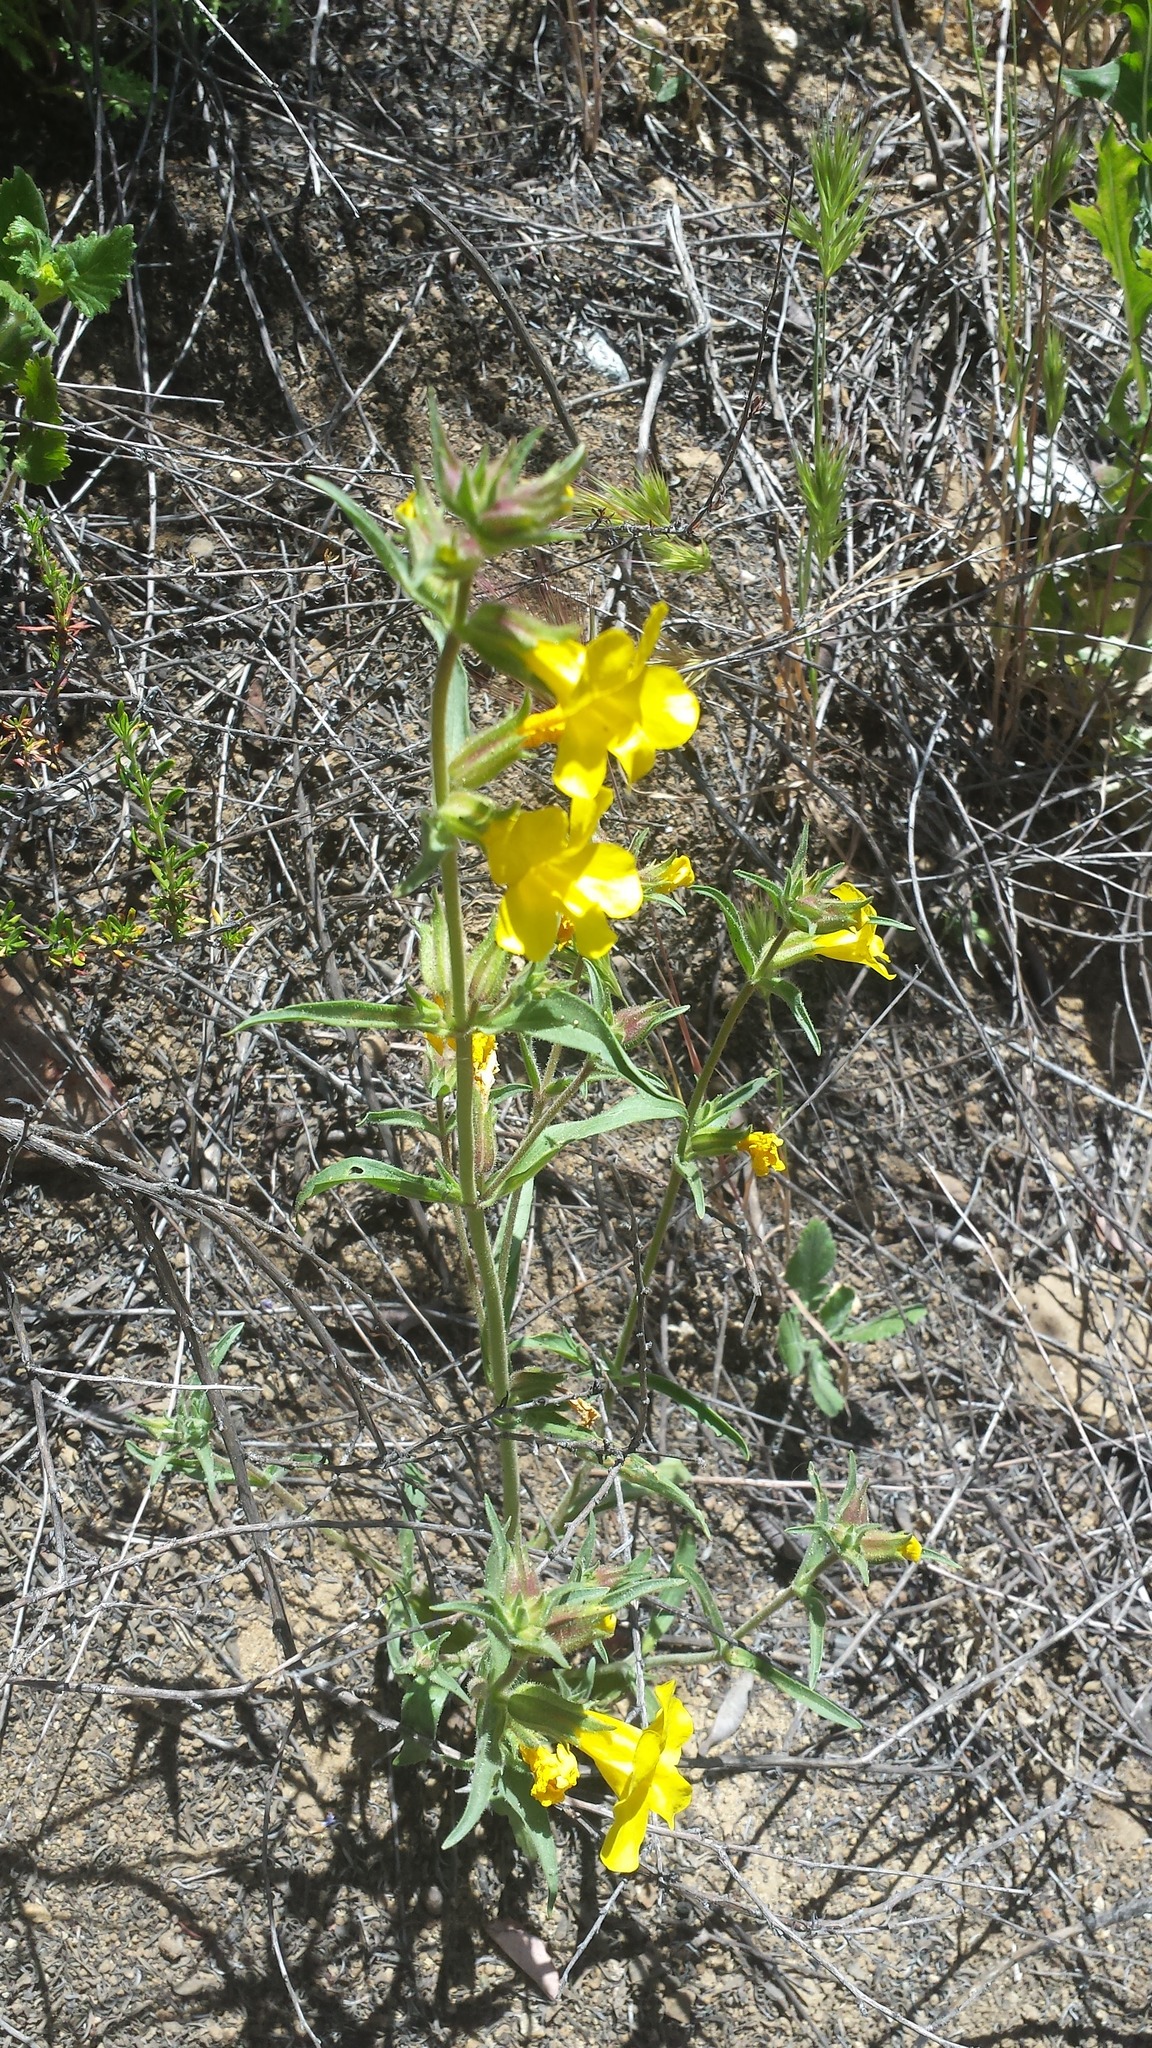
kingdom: Plantae
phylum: Tracheophyta
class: Magnoliopsida
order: Lamiales
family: Phrymaceae
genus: Diplacus
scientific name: Diplacus brevipes
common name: Wide-throat yellow monkey-flower
